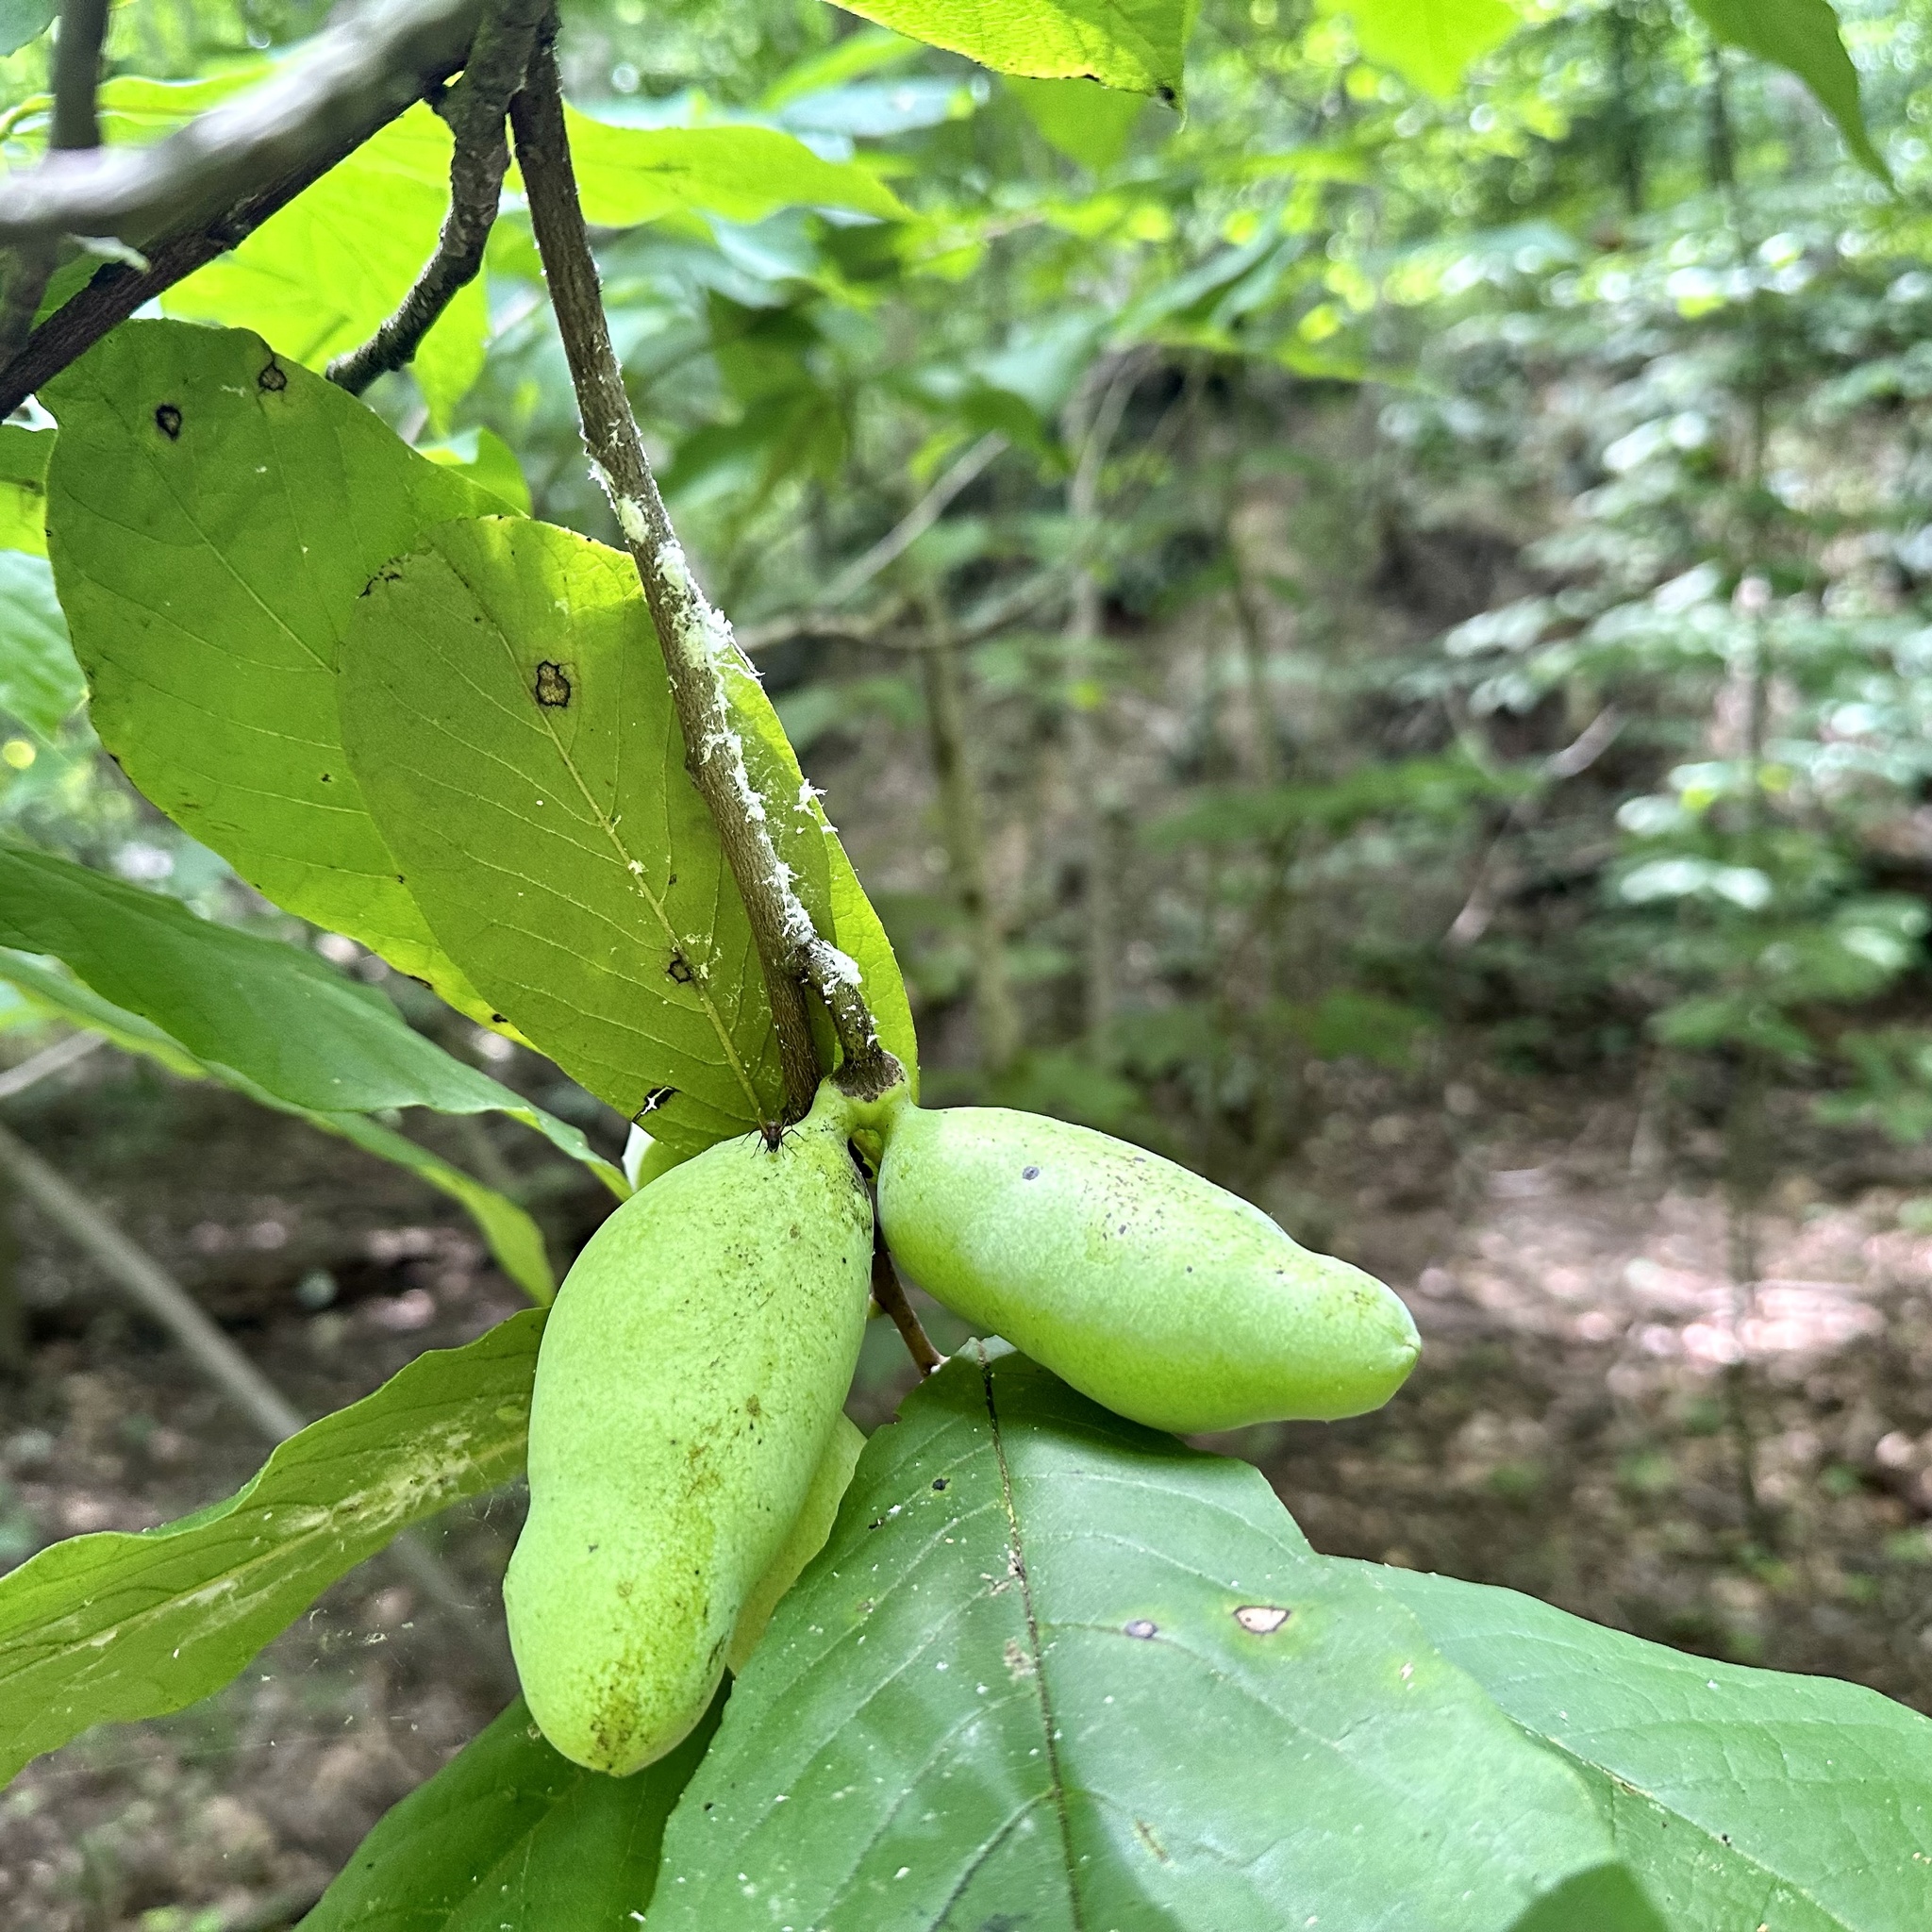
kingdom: Plantae
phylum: Tracheophyta
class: Magnoliopsida
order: Magnoliales
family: Annonaceae
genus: Asimina
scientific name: Asimina triloba
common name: Dog-banana
